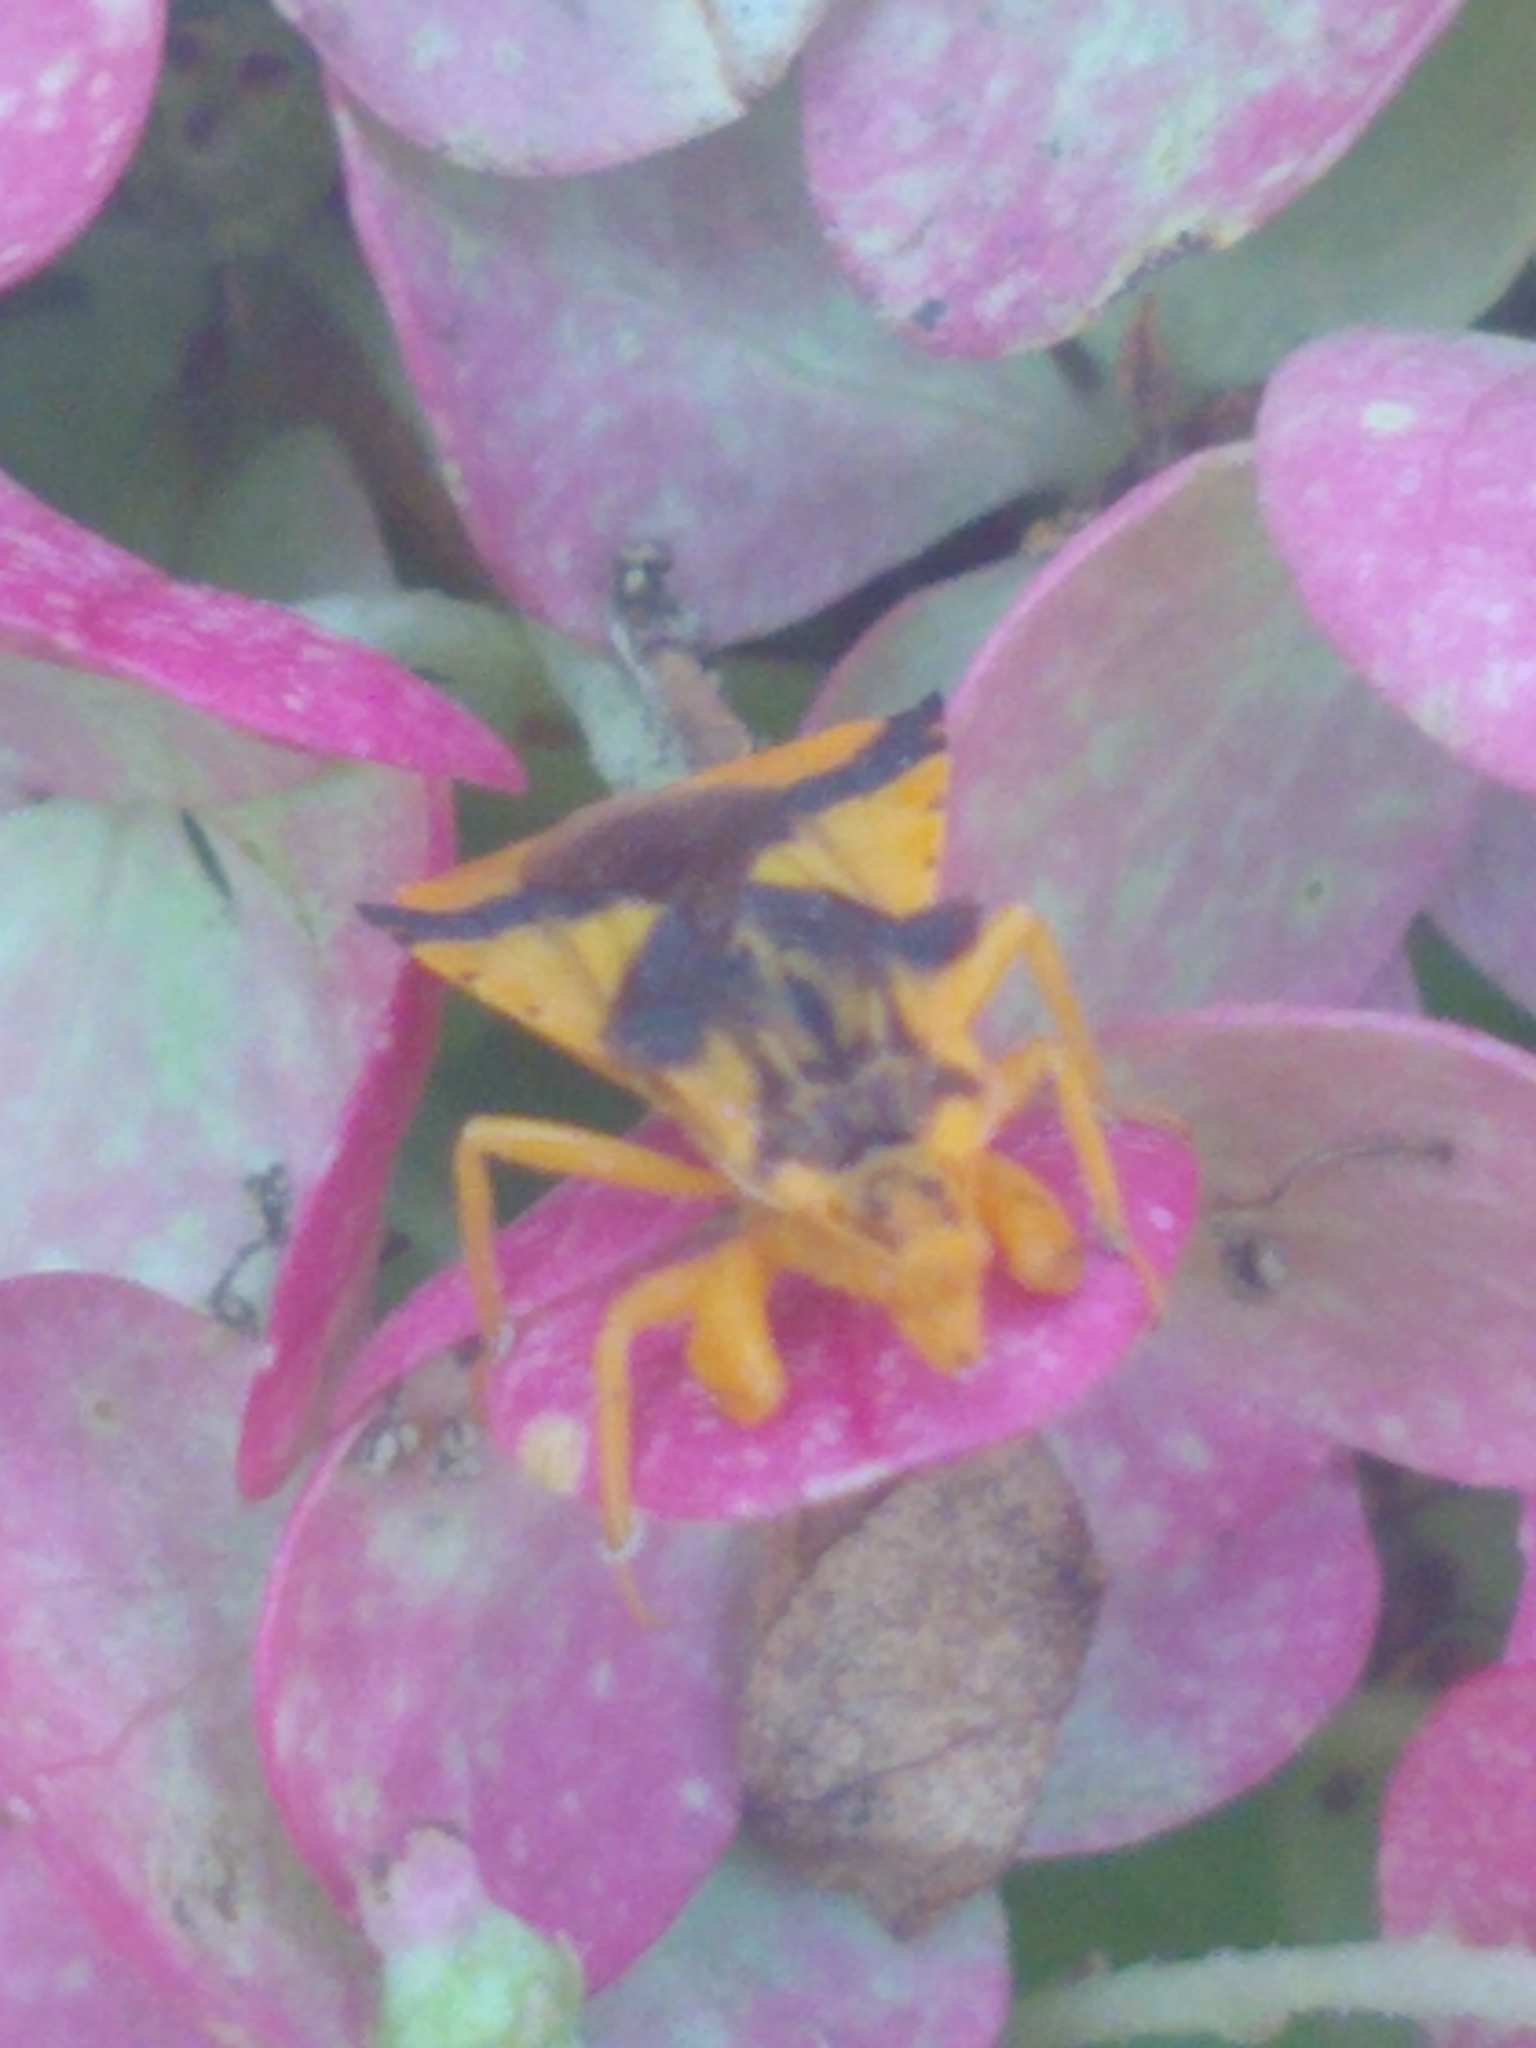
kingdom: Animalia
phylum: Arthropoda
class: Insecta
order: Hemiptera
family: Reduviidae
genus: Phymata
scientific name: Phymata americana
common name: Jagged ambush bug
